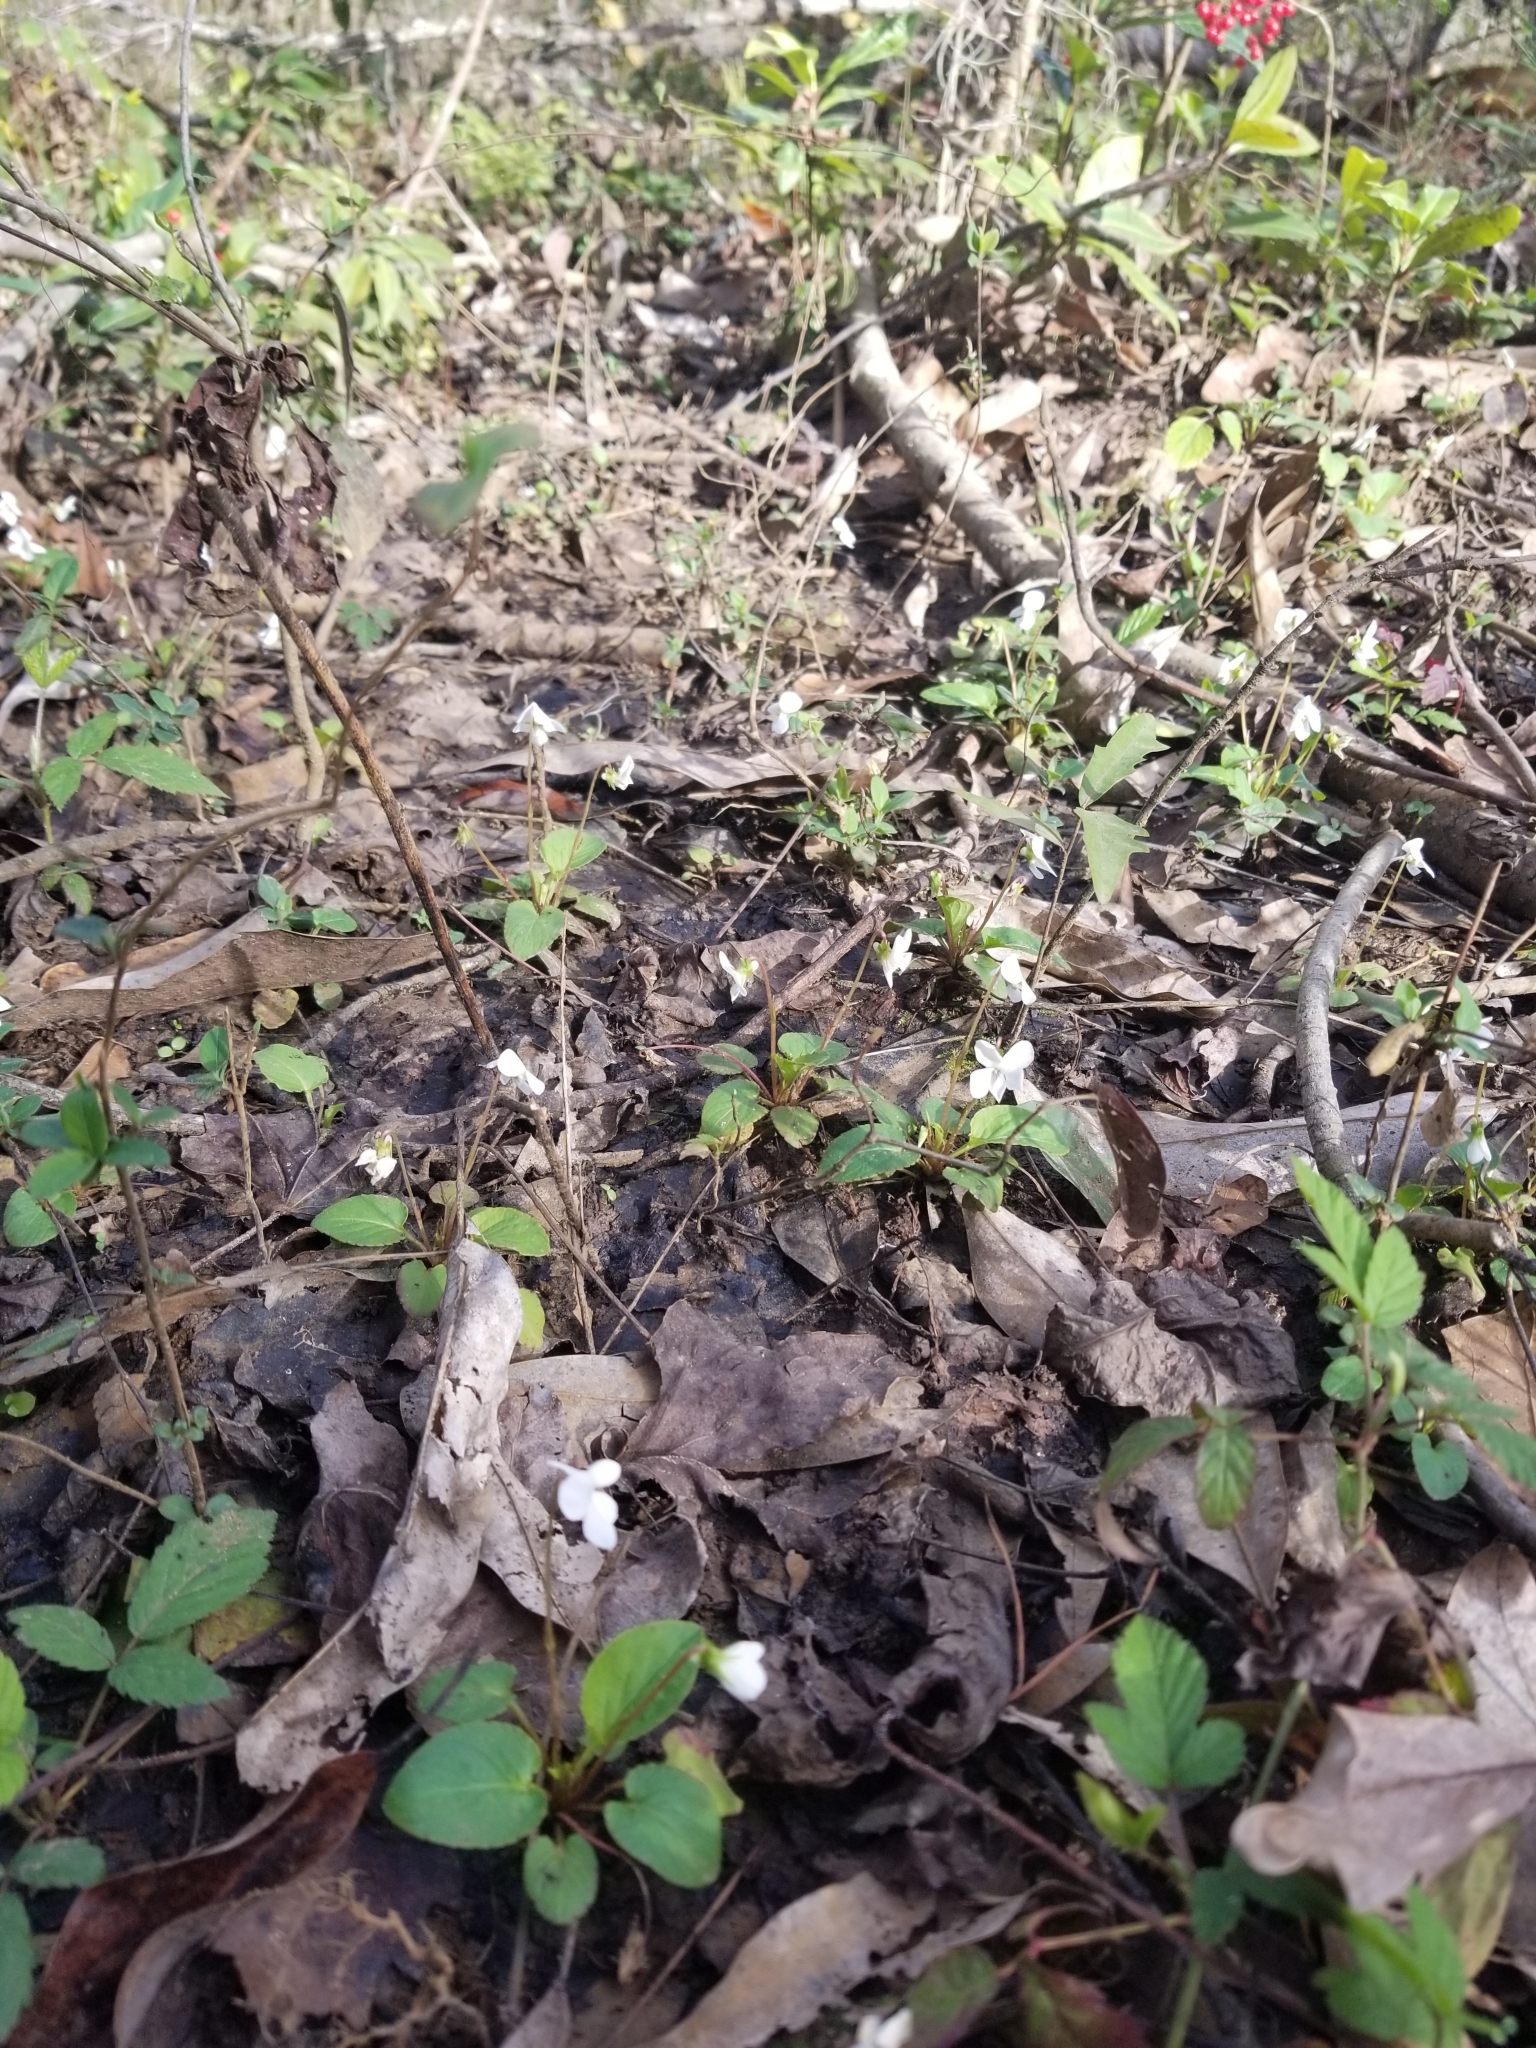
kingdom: Plantae
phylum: Tracheophyta
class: Magnoliopsida
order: Malpighiales
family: Violaceae
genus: Viola
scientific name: Viola primulifolia
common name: Primrose-leaf violet
